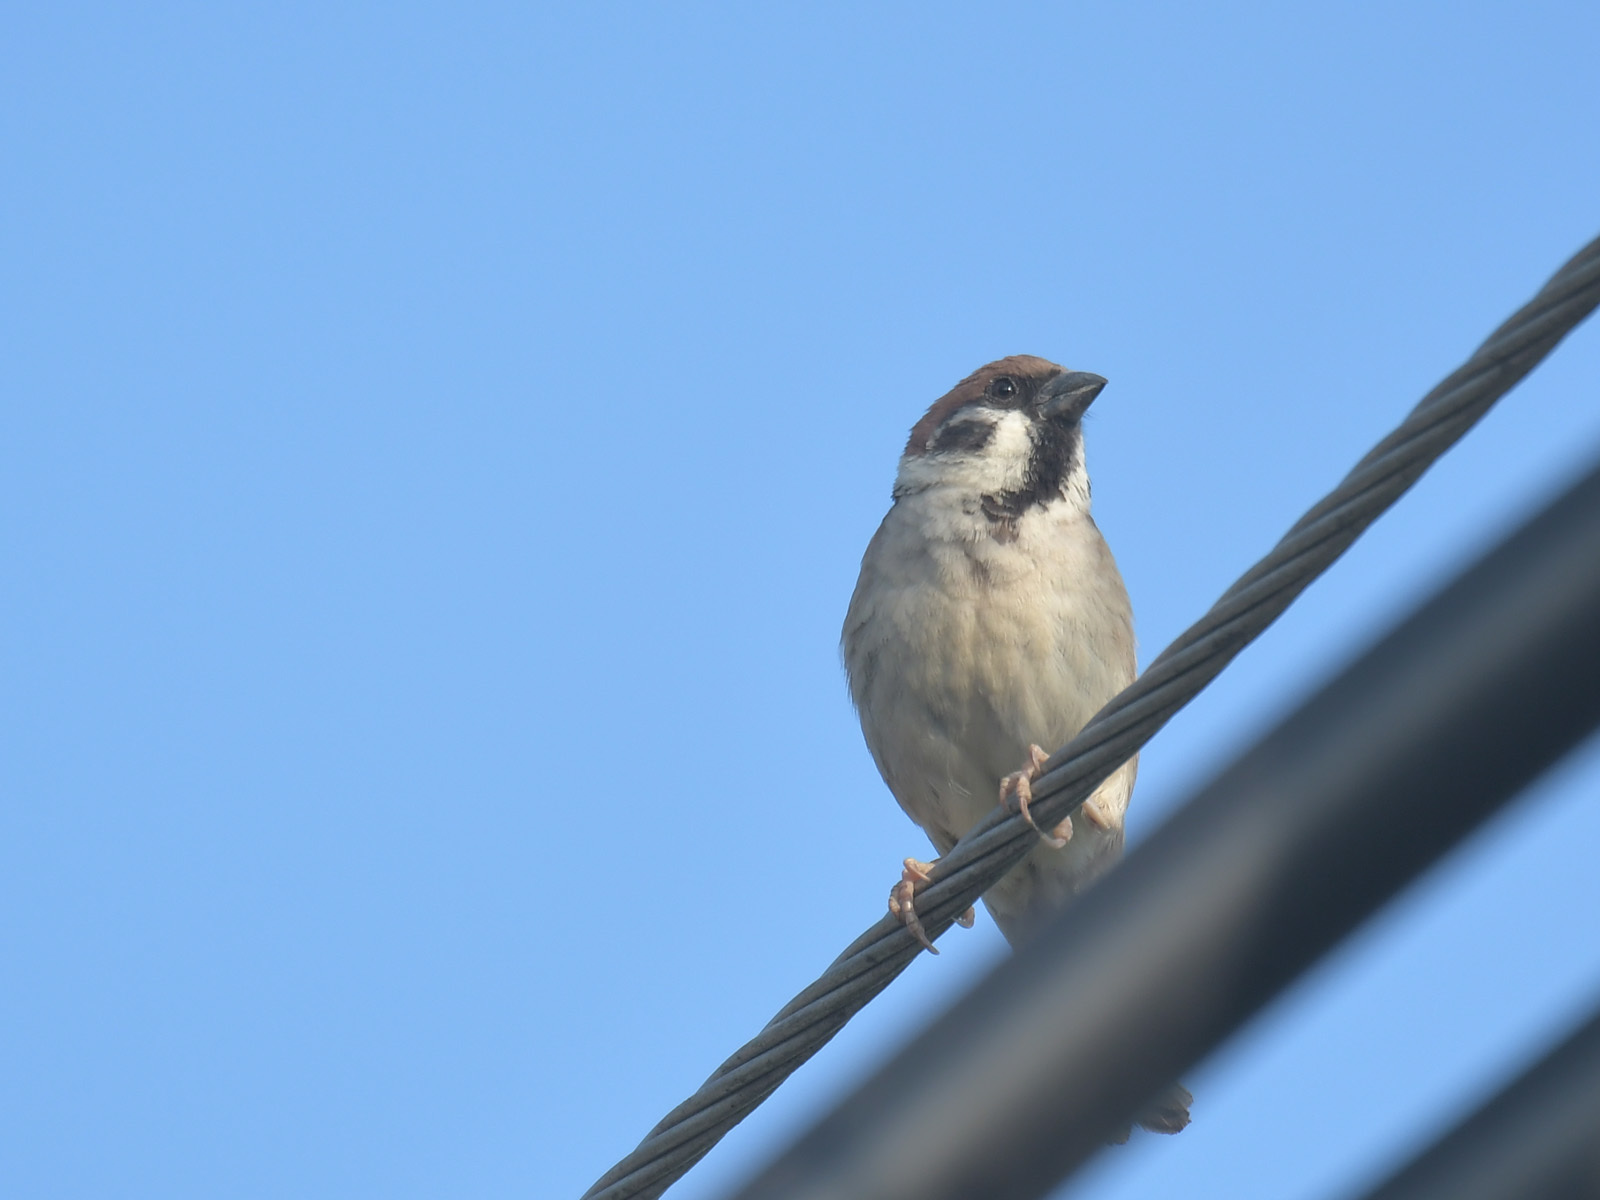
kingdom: Animalia
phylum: Chordata
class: Aves
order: Passeriformes
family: Passeridae
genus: Passer
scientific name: Passer montanus
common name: Eurasian tree sparrow
